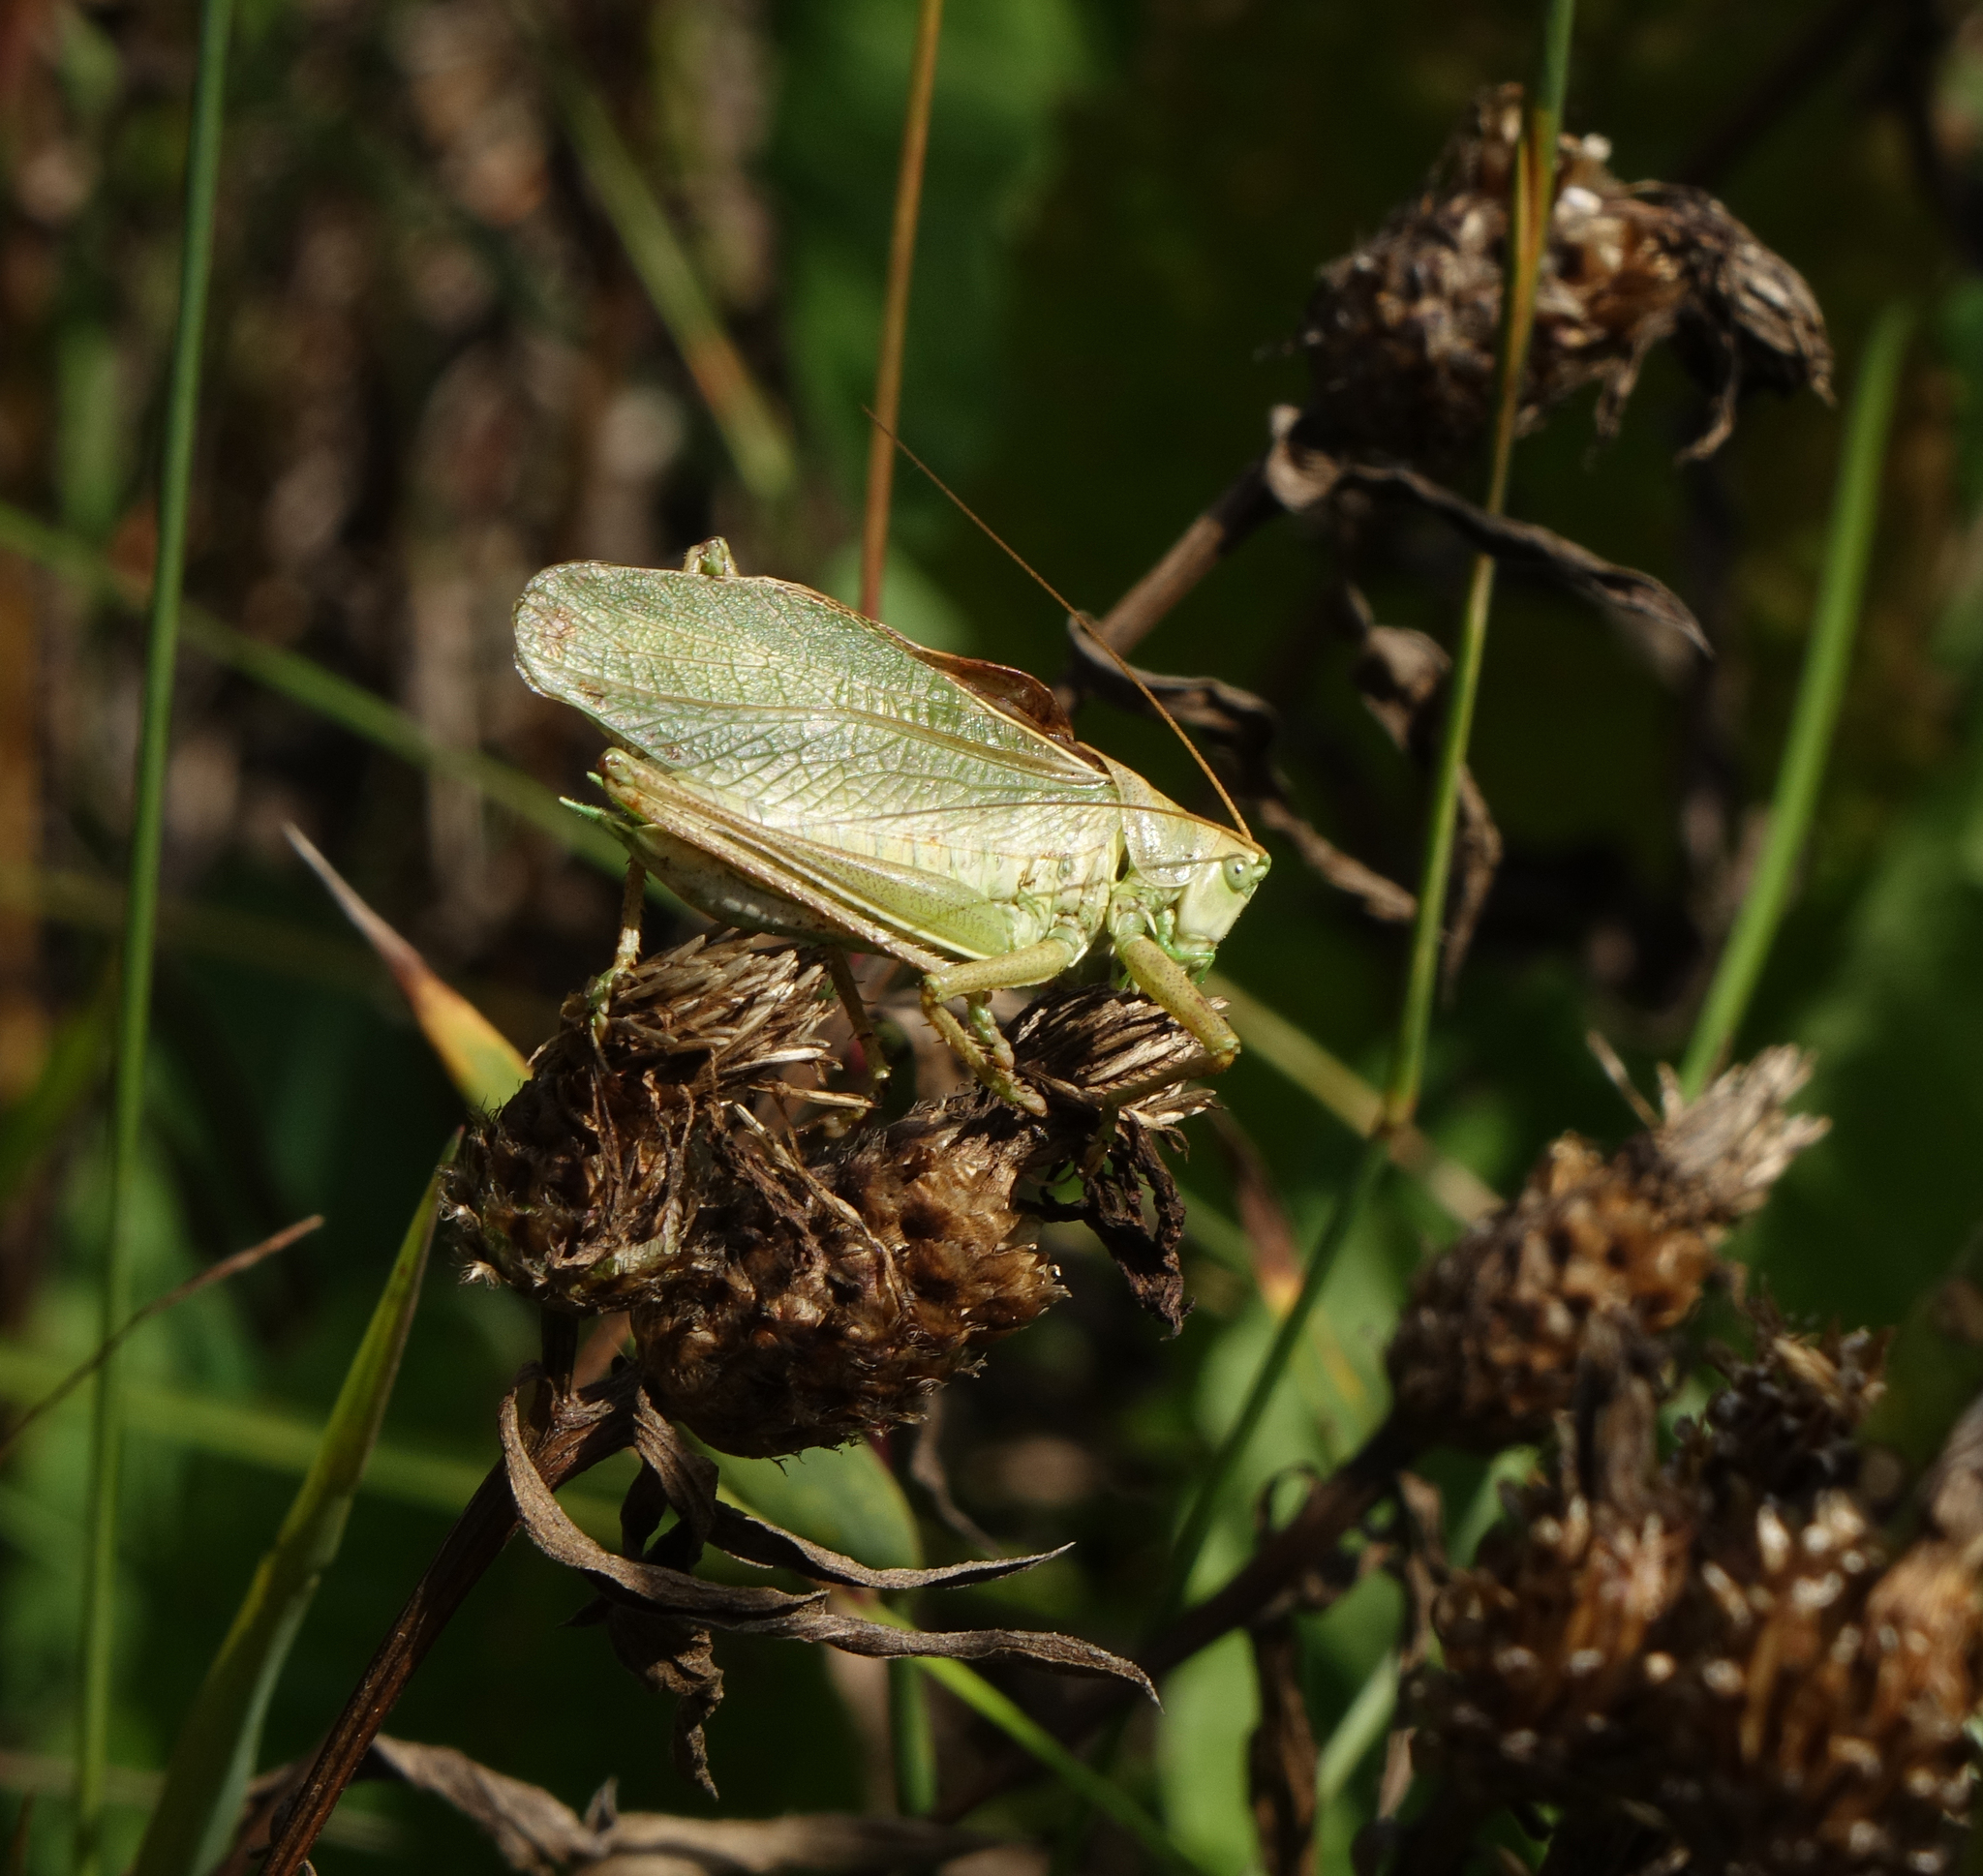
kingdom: Animalia
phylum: Arthropoda
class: Insecta
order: Orthoptera
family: Tettigoniidae
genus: Tettigonia
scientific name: Tettigonia cantans
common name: Upland green bush-cricket
